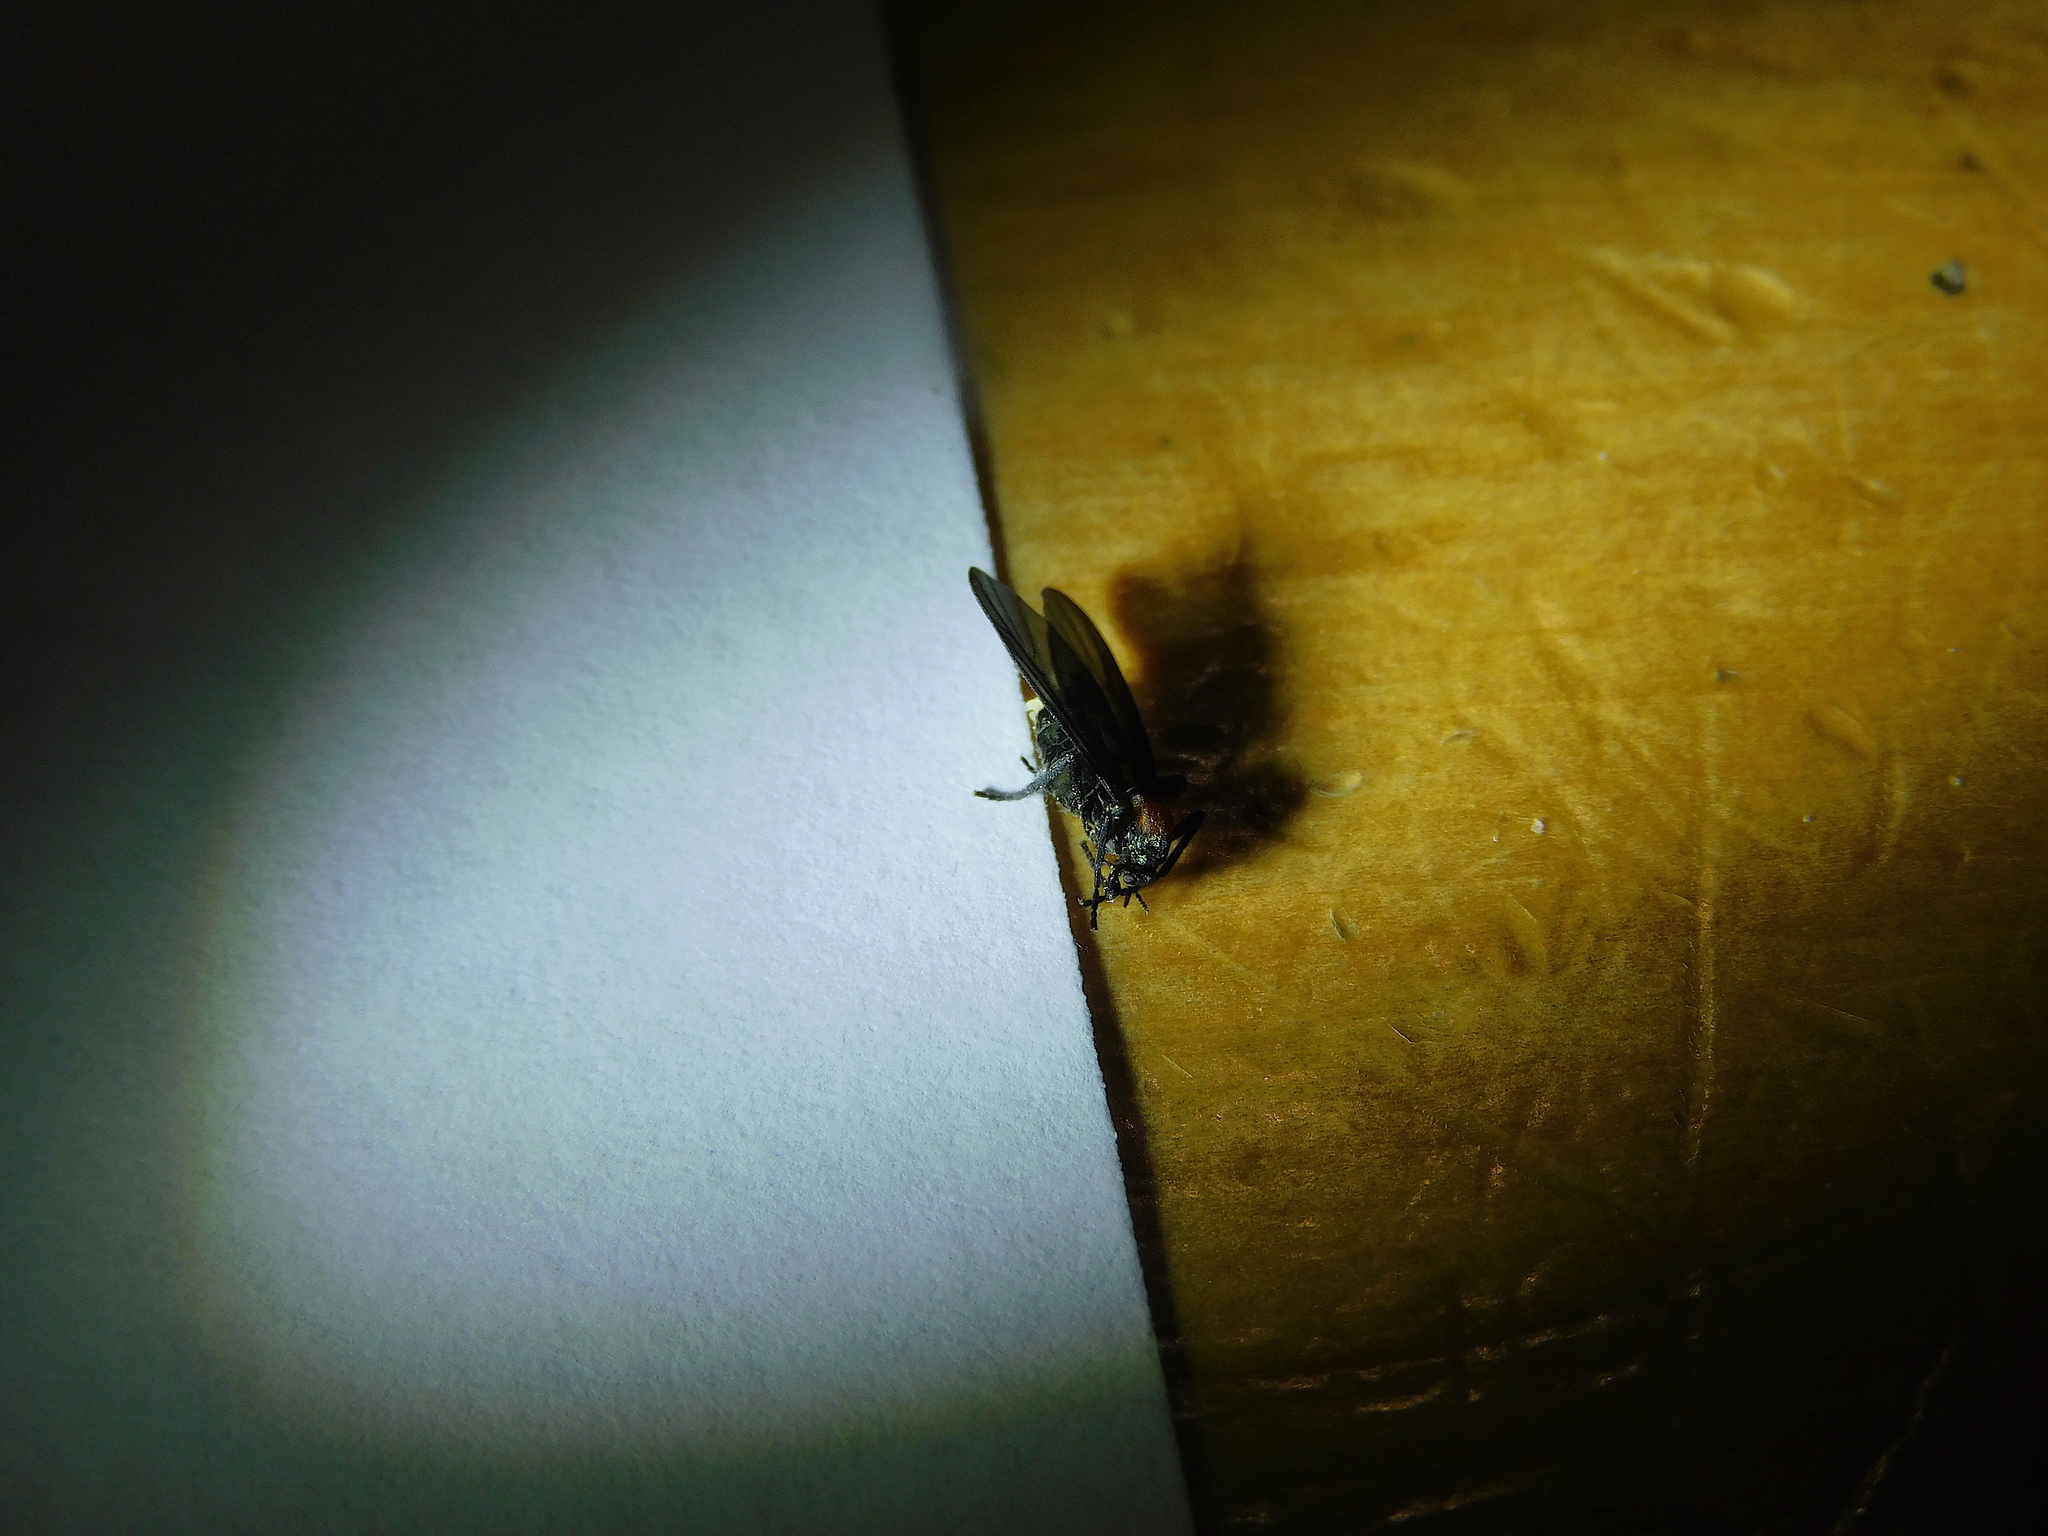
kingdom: Animalia
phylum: Arthropoda
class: Insecta
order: Diptera
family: Bibionidae
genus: Plecia
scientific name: Plecia dimidiata
